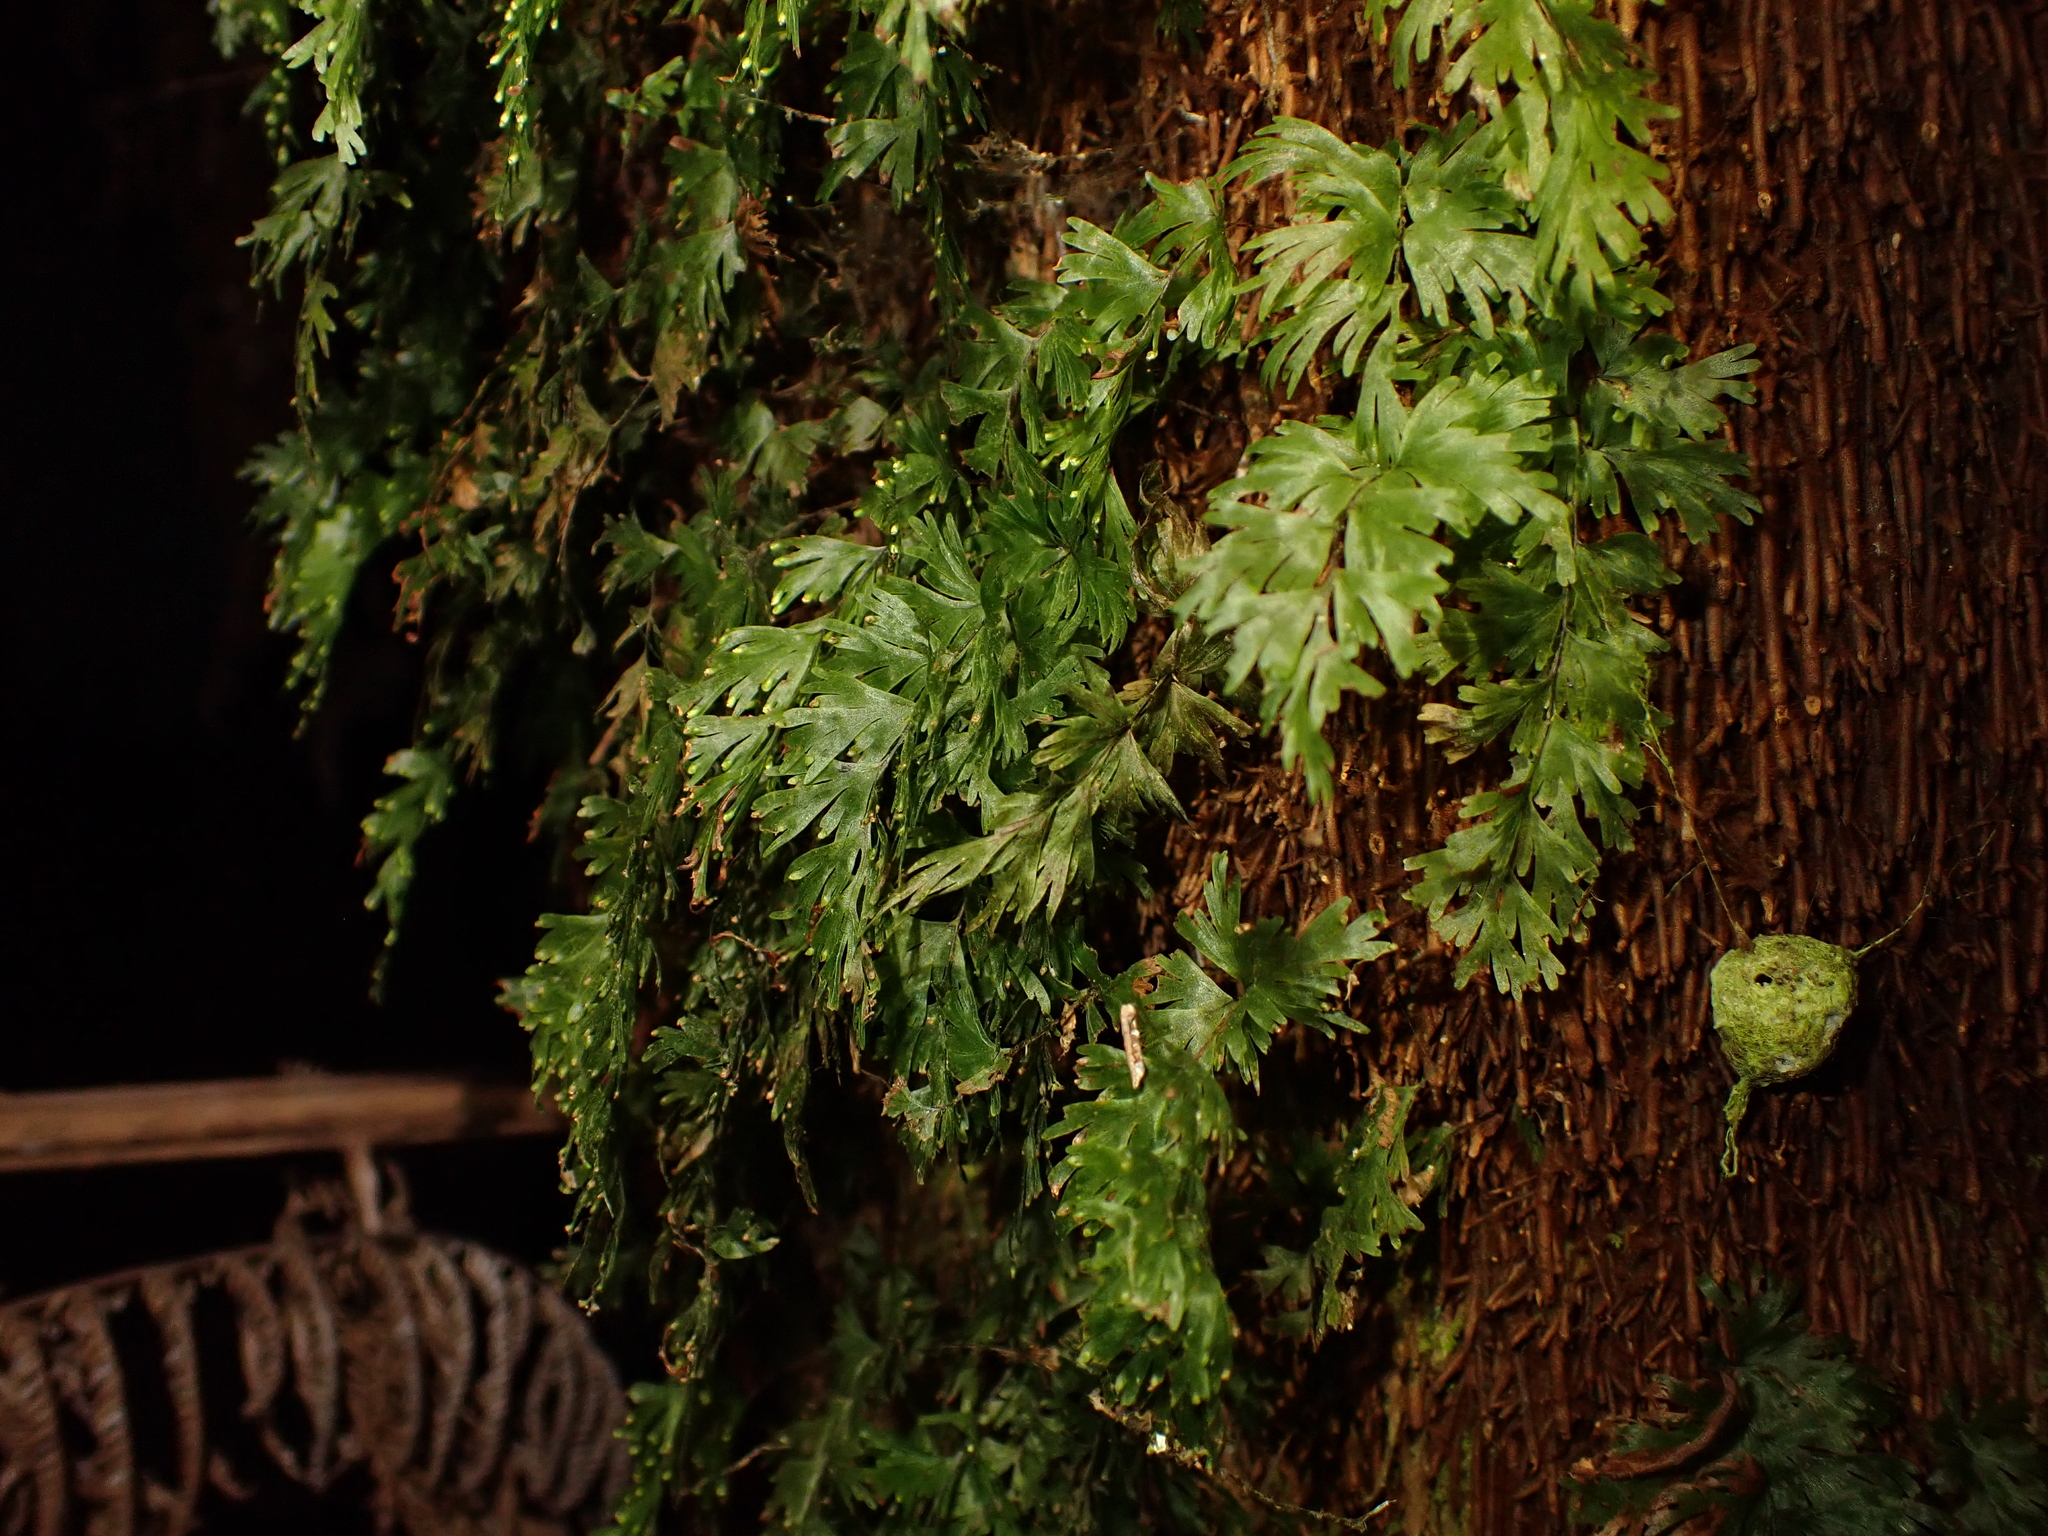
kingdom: Plantae
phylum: Tracheophyta
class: Polypodiopsida
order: Hymenophyllales
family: Hymenophyllaceae
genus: Hymenophyllum
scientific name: Hymenophyllum flabellatum
